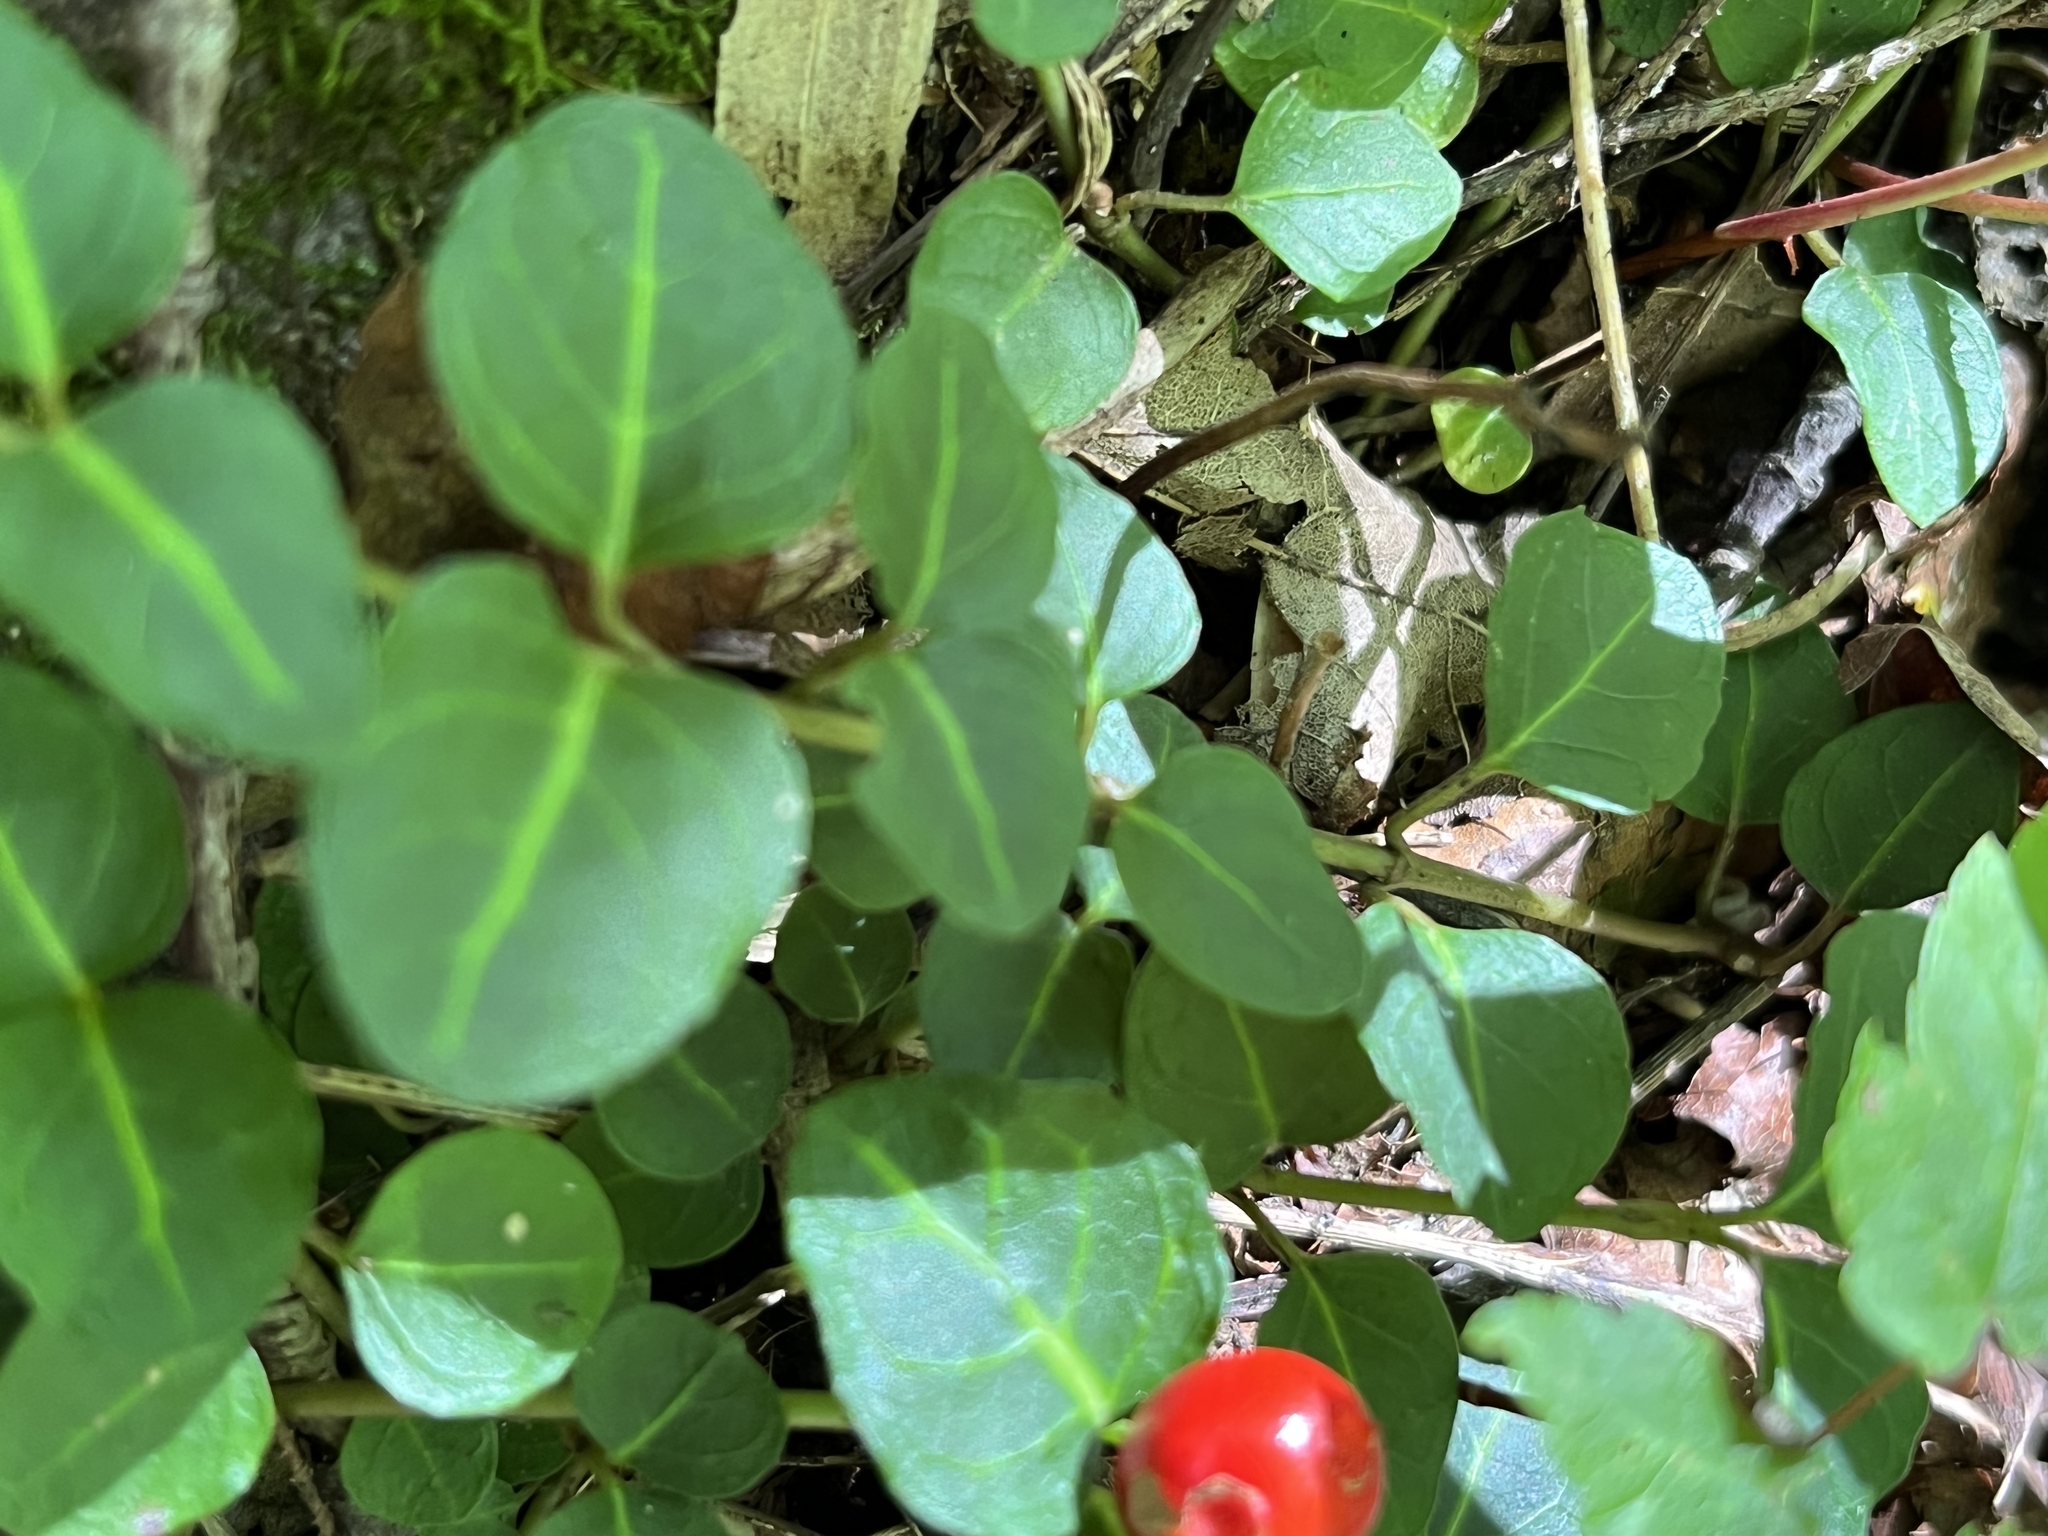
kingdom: Plantae
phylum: Tracheophyta
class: Magnoliopsida
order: Gentianales
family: Rubiaceae
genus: Mitchella
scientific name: Mitchella repens
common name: Partridge-berry
